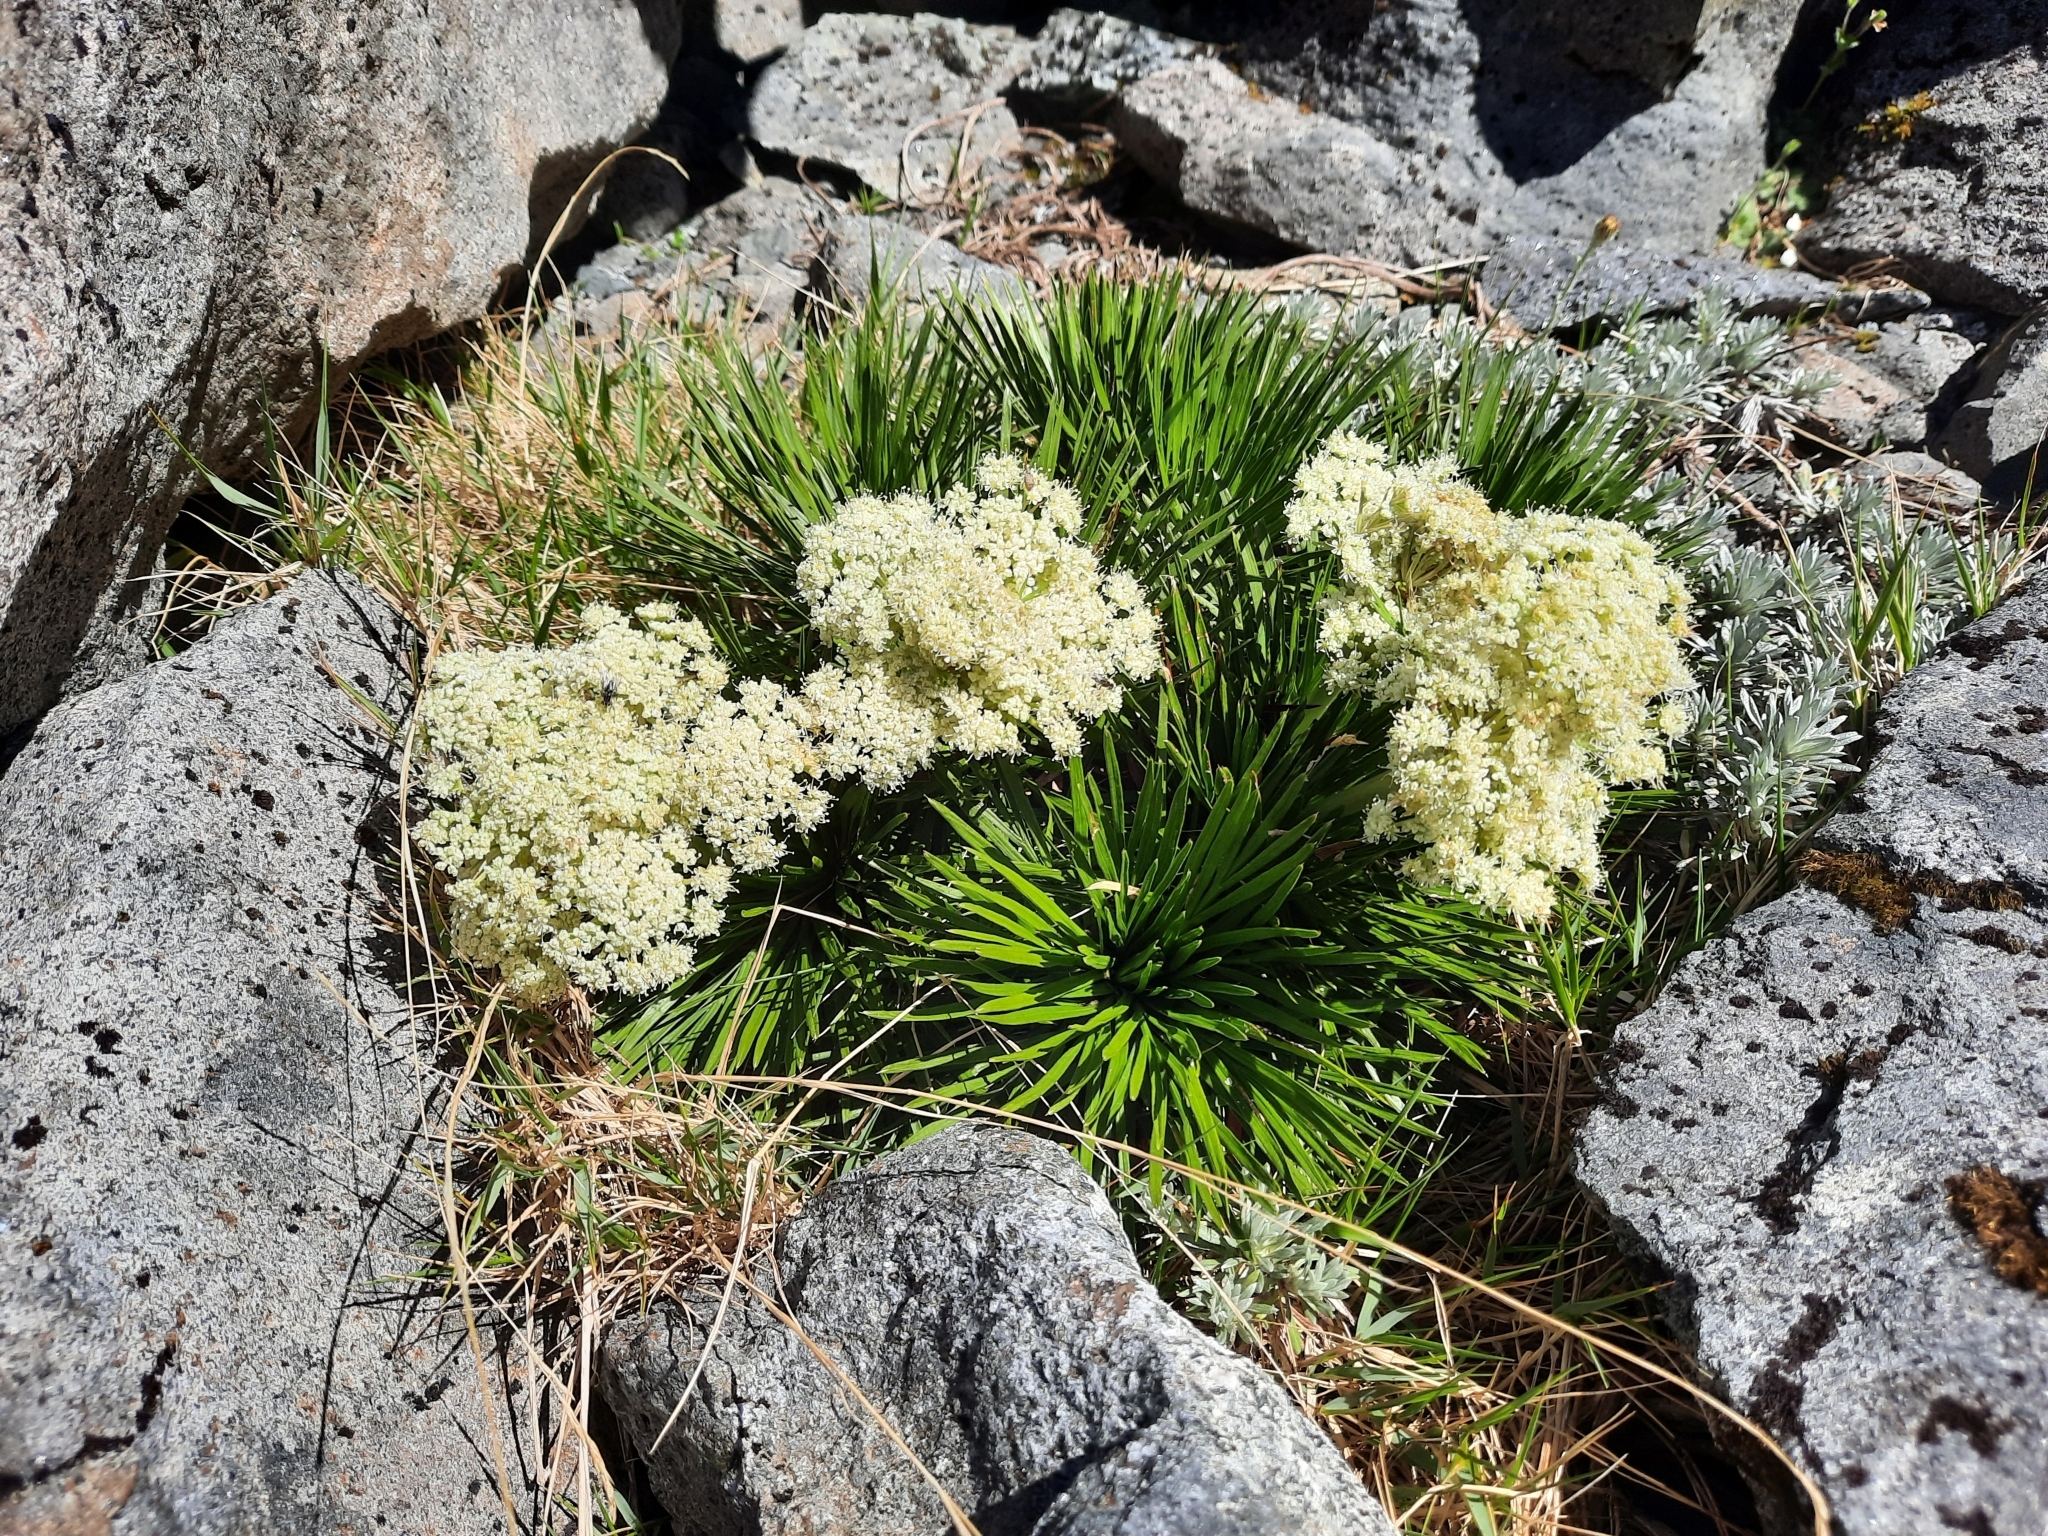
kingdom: Plantae
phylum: Tracheophyta
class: Magnoliopsida
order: Apiales
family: Apiaceae
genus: Aciphylla
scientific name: Aciphylla congesta
